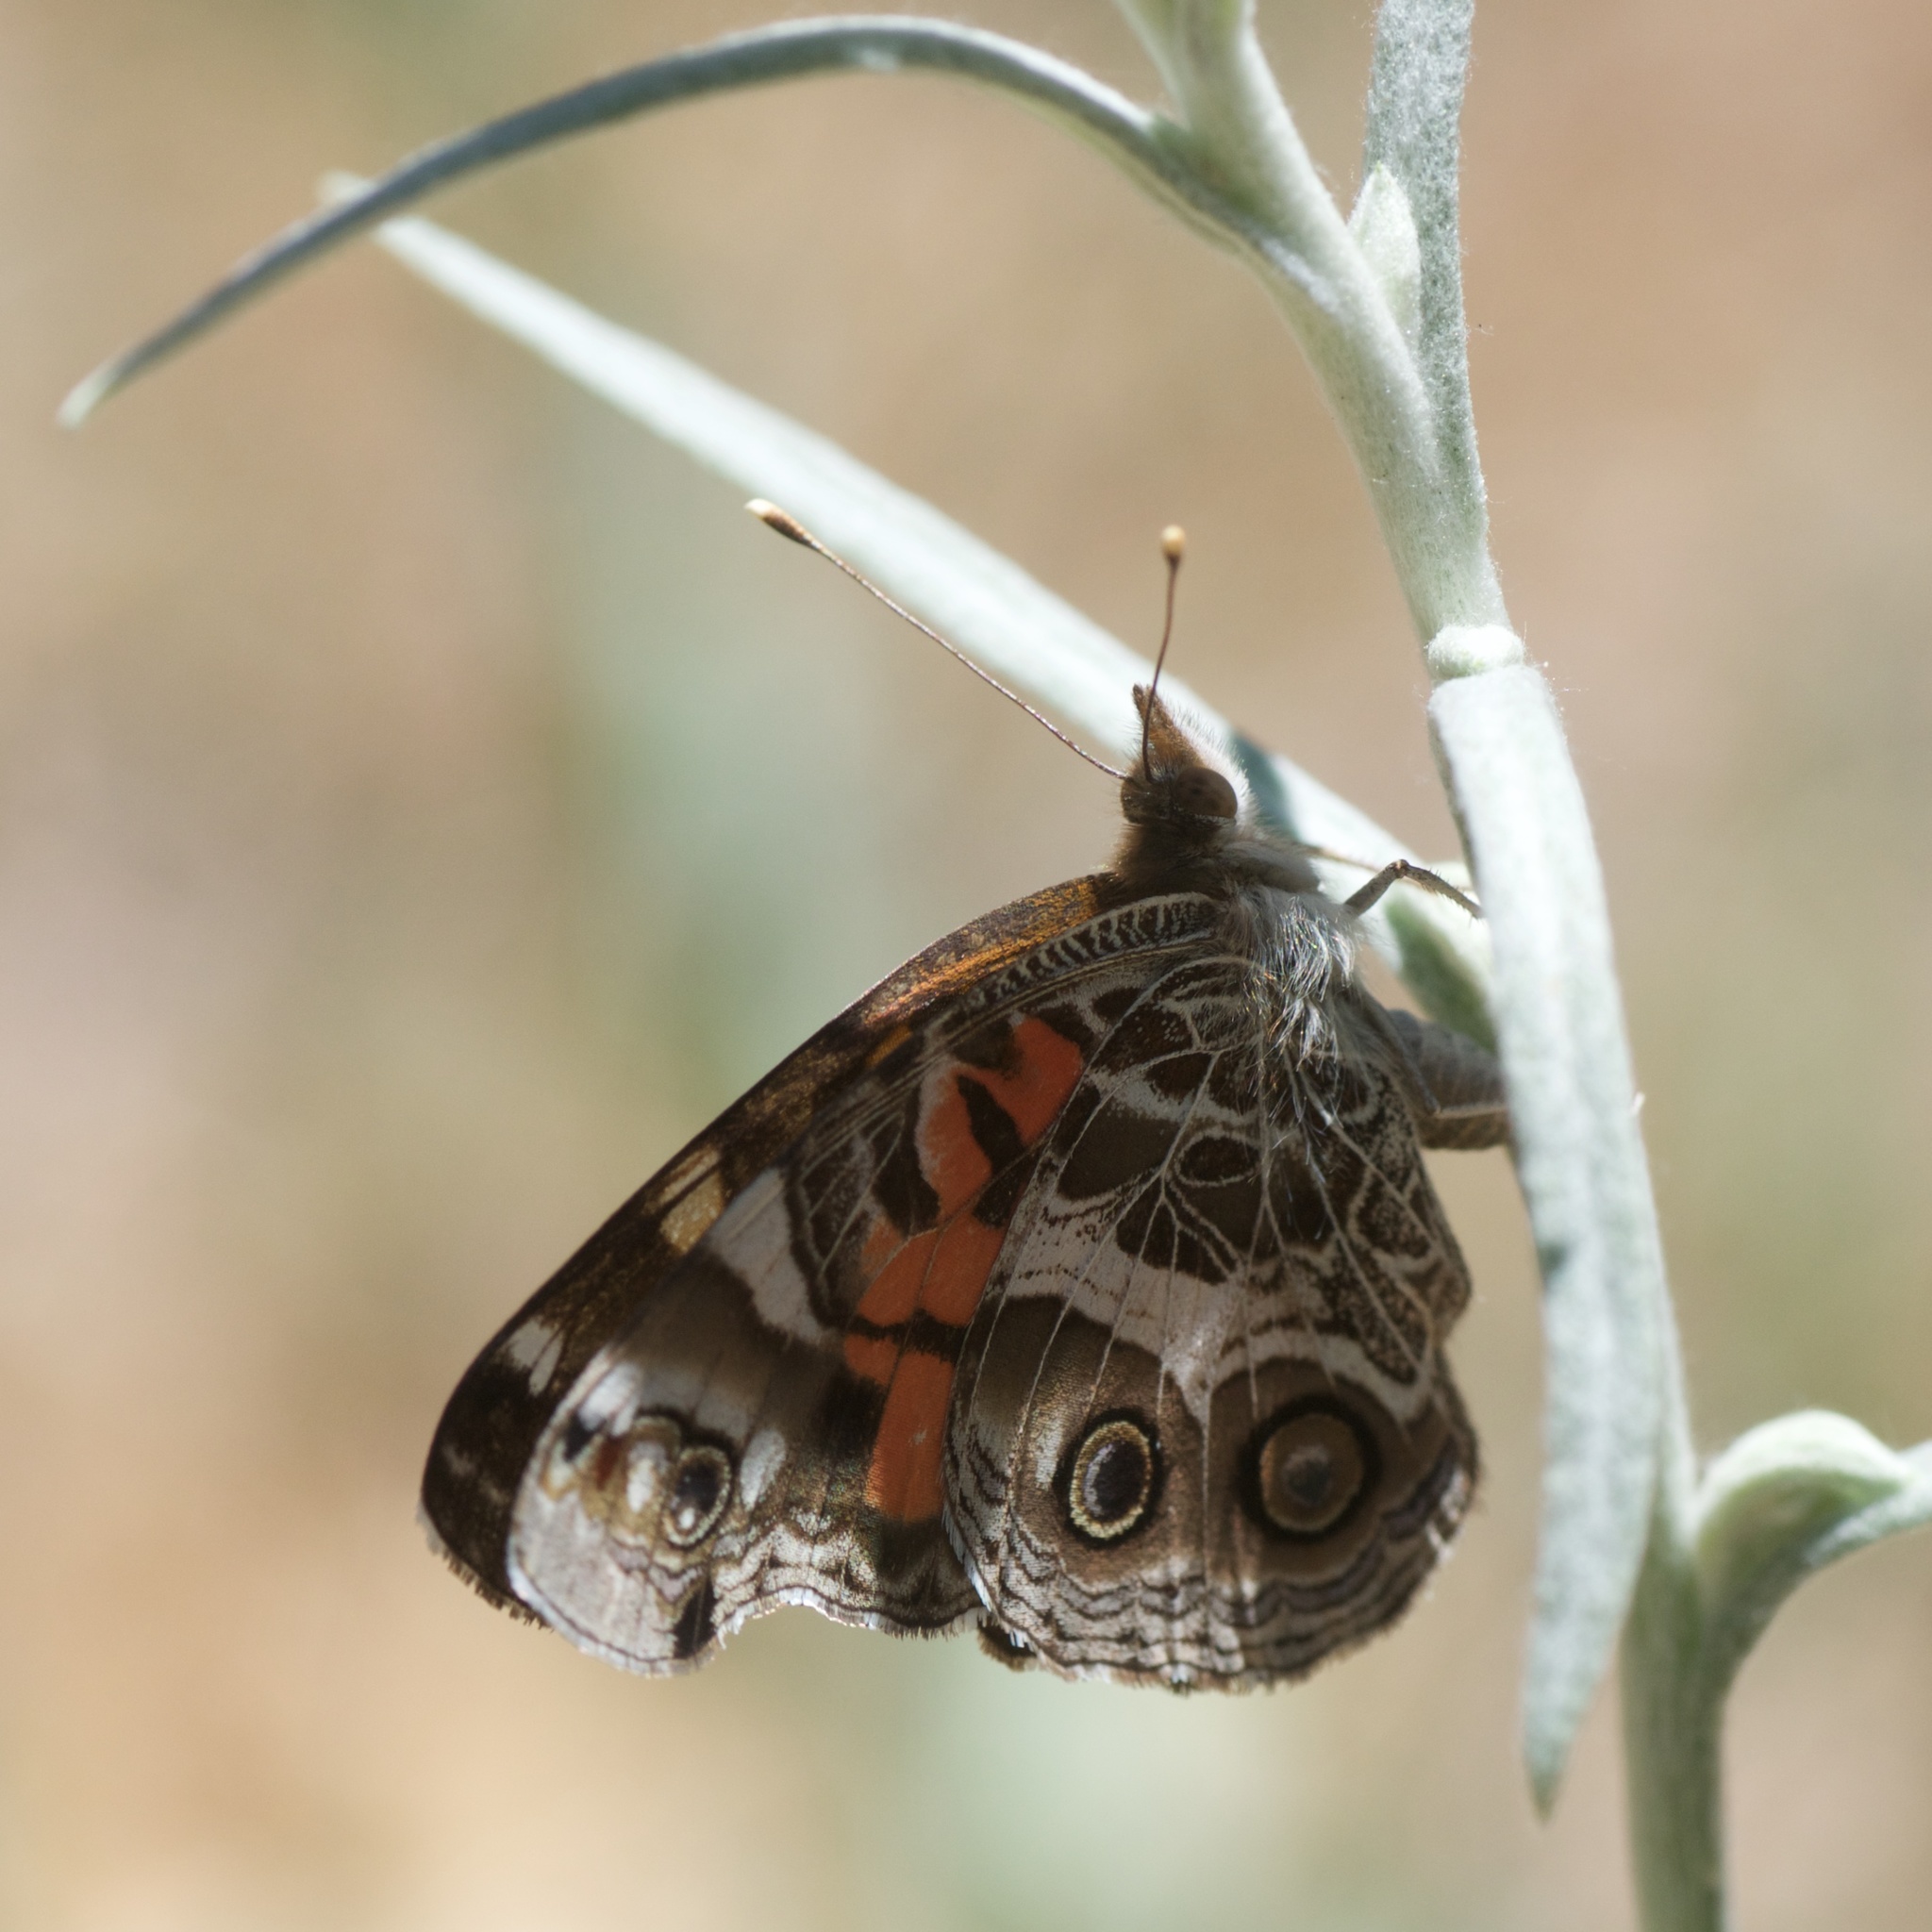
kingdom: Animalia
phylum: Arthropoda
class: Insecta
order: Lepidoptera
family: Nymphalidae
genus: Vanessa
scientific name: Vanessa virginiensis
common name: American lady
